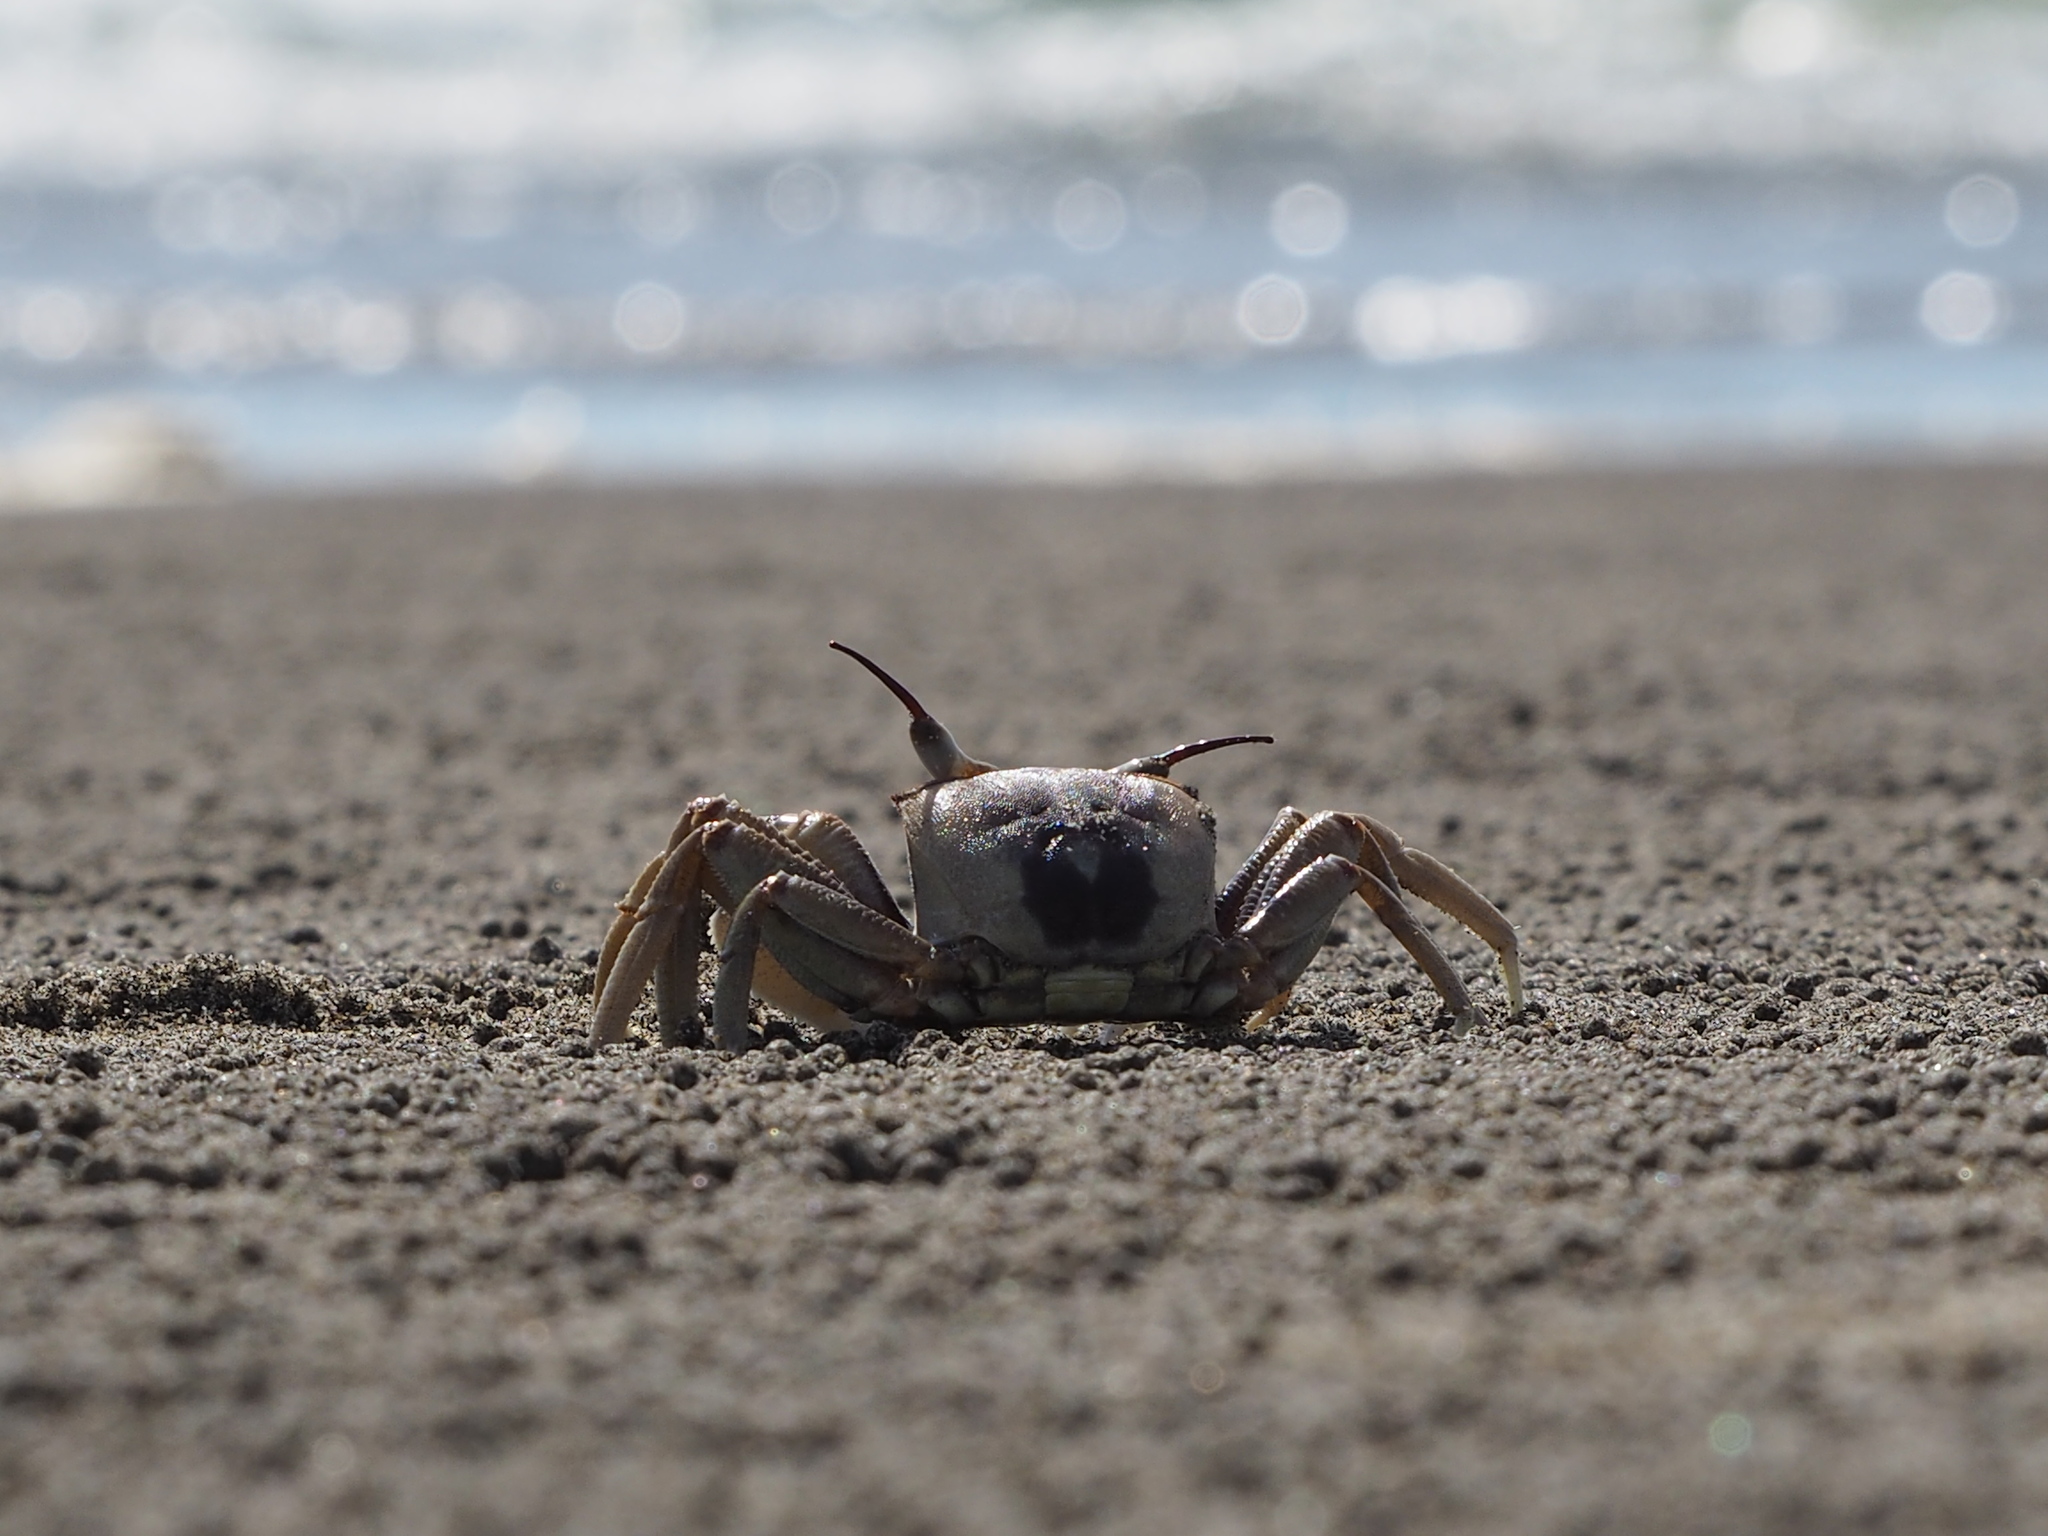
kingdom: Animalia
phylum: Arthropoda
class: Malacostraca
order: Decapoda
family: Ocypodidae
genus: Ocypode
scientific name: Ocypode ceratophthalmus
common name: Indo-pacific ghost crab
